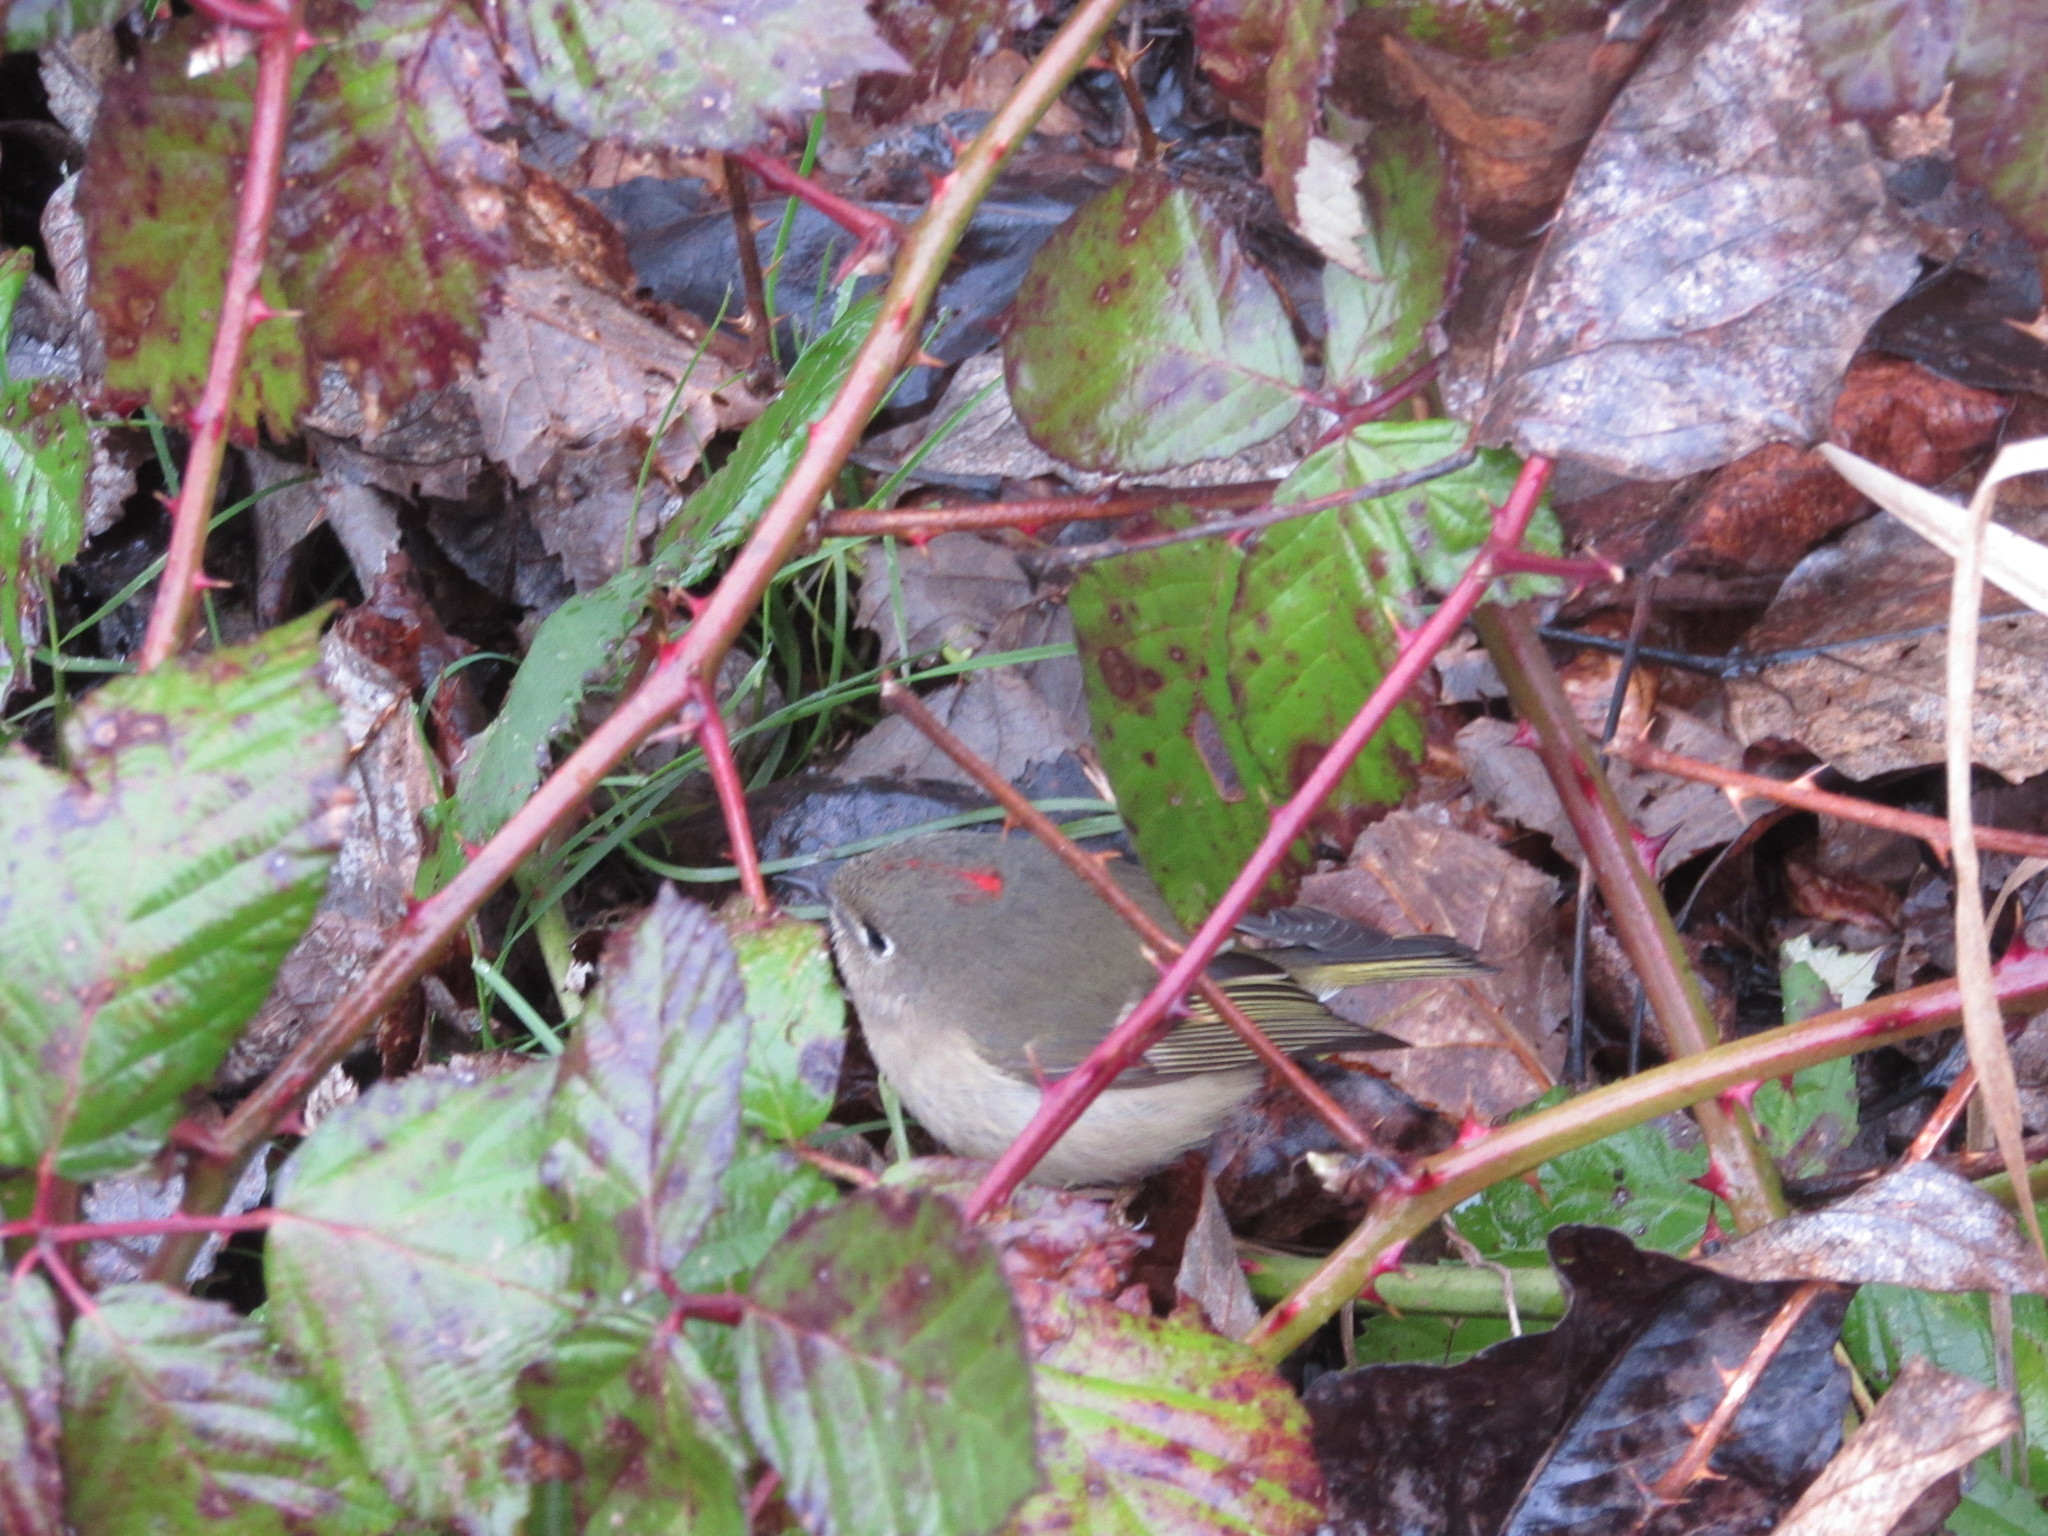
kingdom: Animalia
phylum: Chordata
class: Aves
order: Passeriformes
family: Regulidae
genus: Regulus
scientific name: Regulus calendula
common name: Ruby-crowned kinglet
